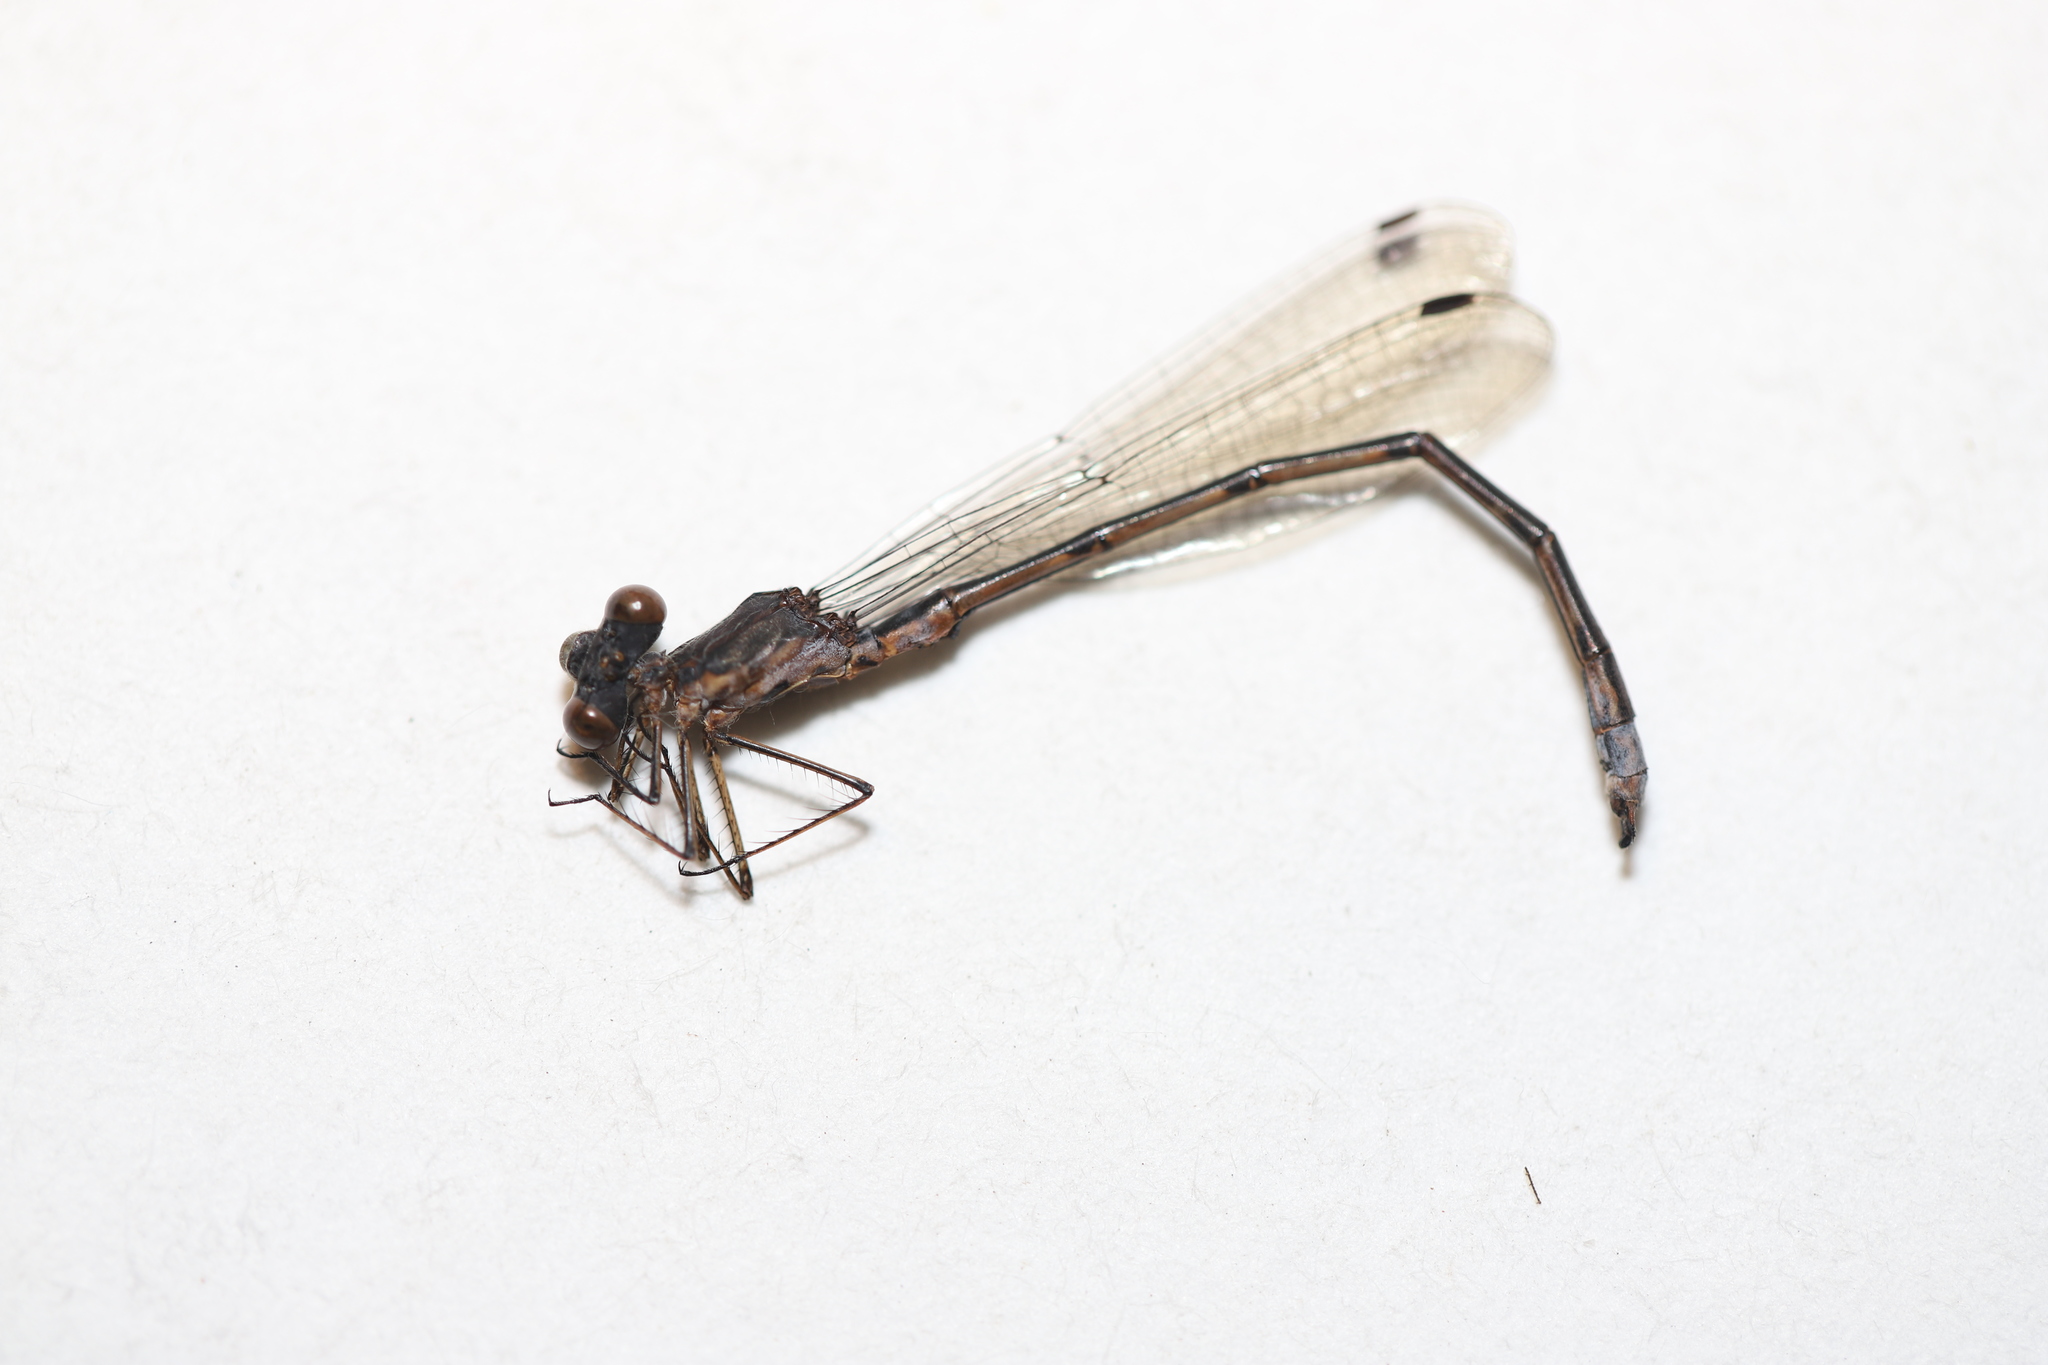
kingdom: Animalia
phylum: Arthropoda
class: Insecta
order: Odonata
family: Lestidae
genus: Lestes
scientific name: Lestes congener
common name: Spotted spreadwing
